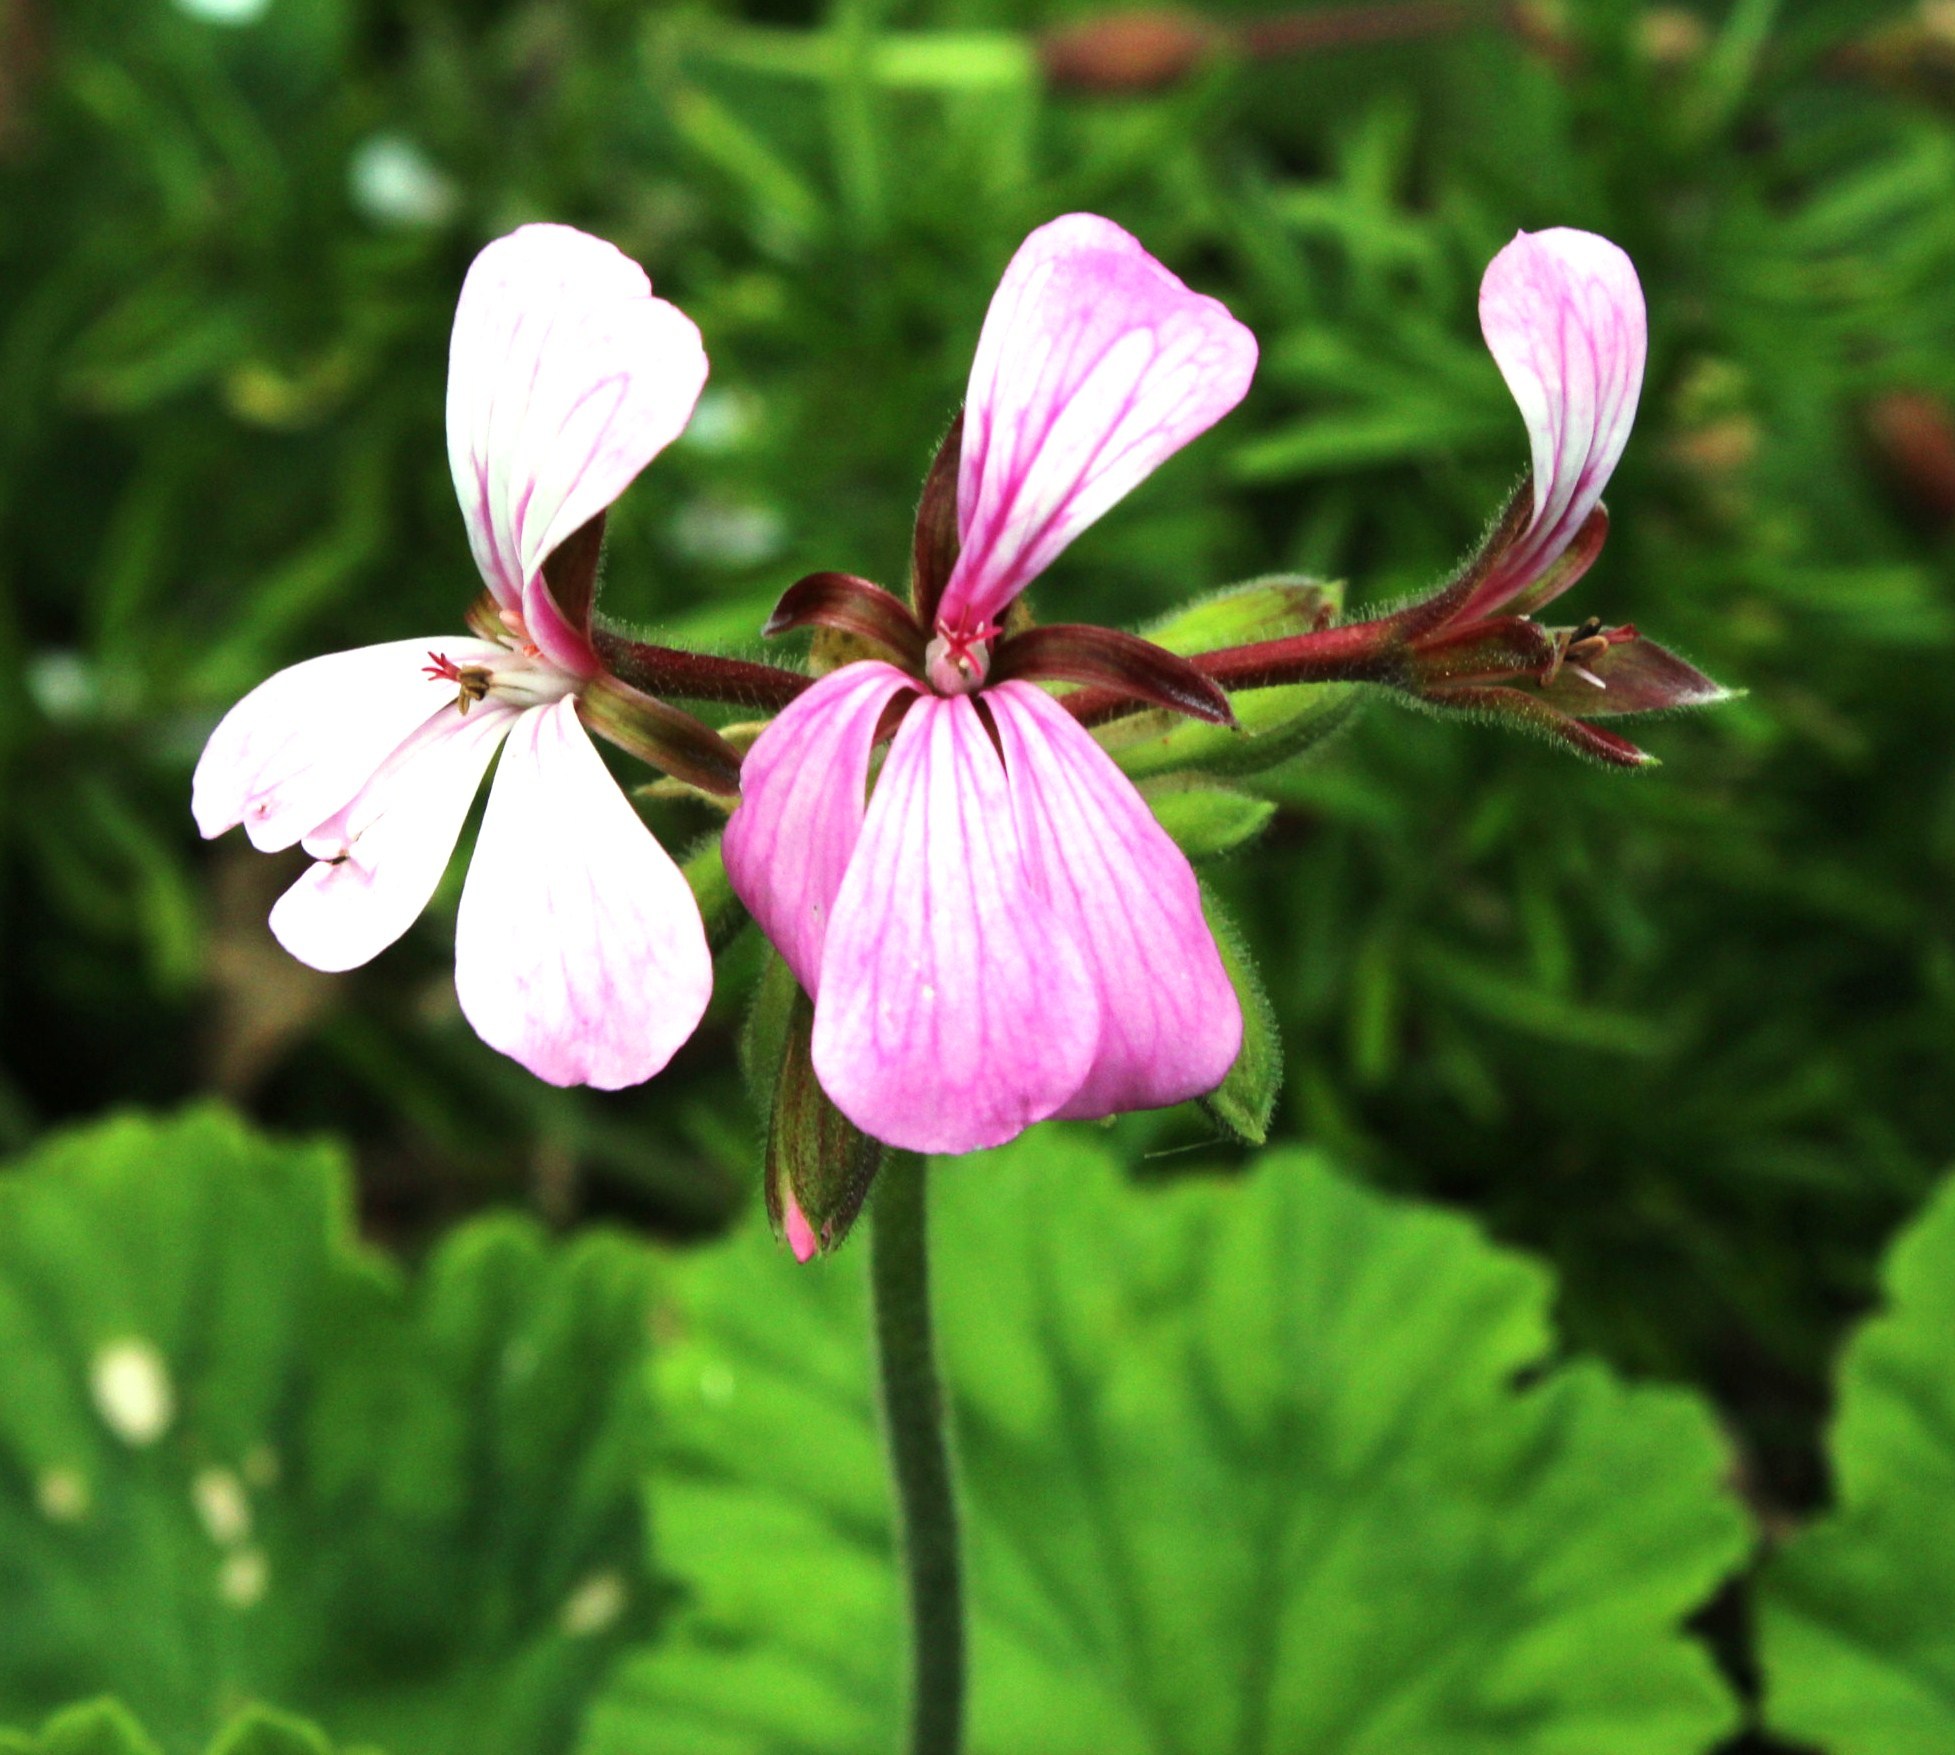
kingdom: Plantae
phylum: Tracheophyta
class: Magnoliopsida
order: Geraniales
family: Geraniaceae
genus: Pelargonium
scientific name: Pelargonium zonale
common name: Horseshoe geranium
